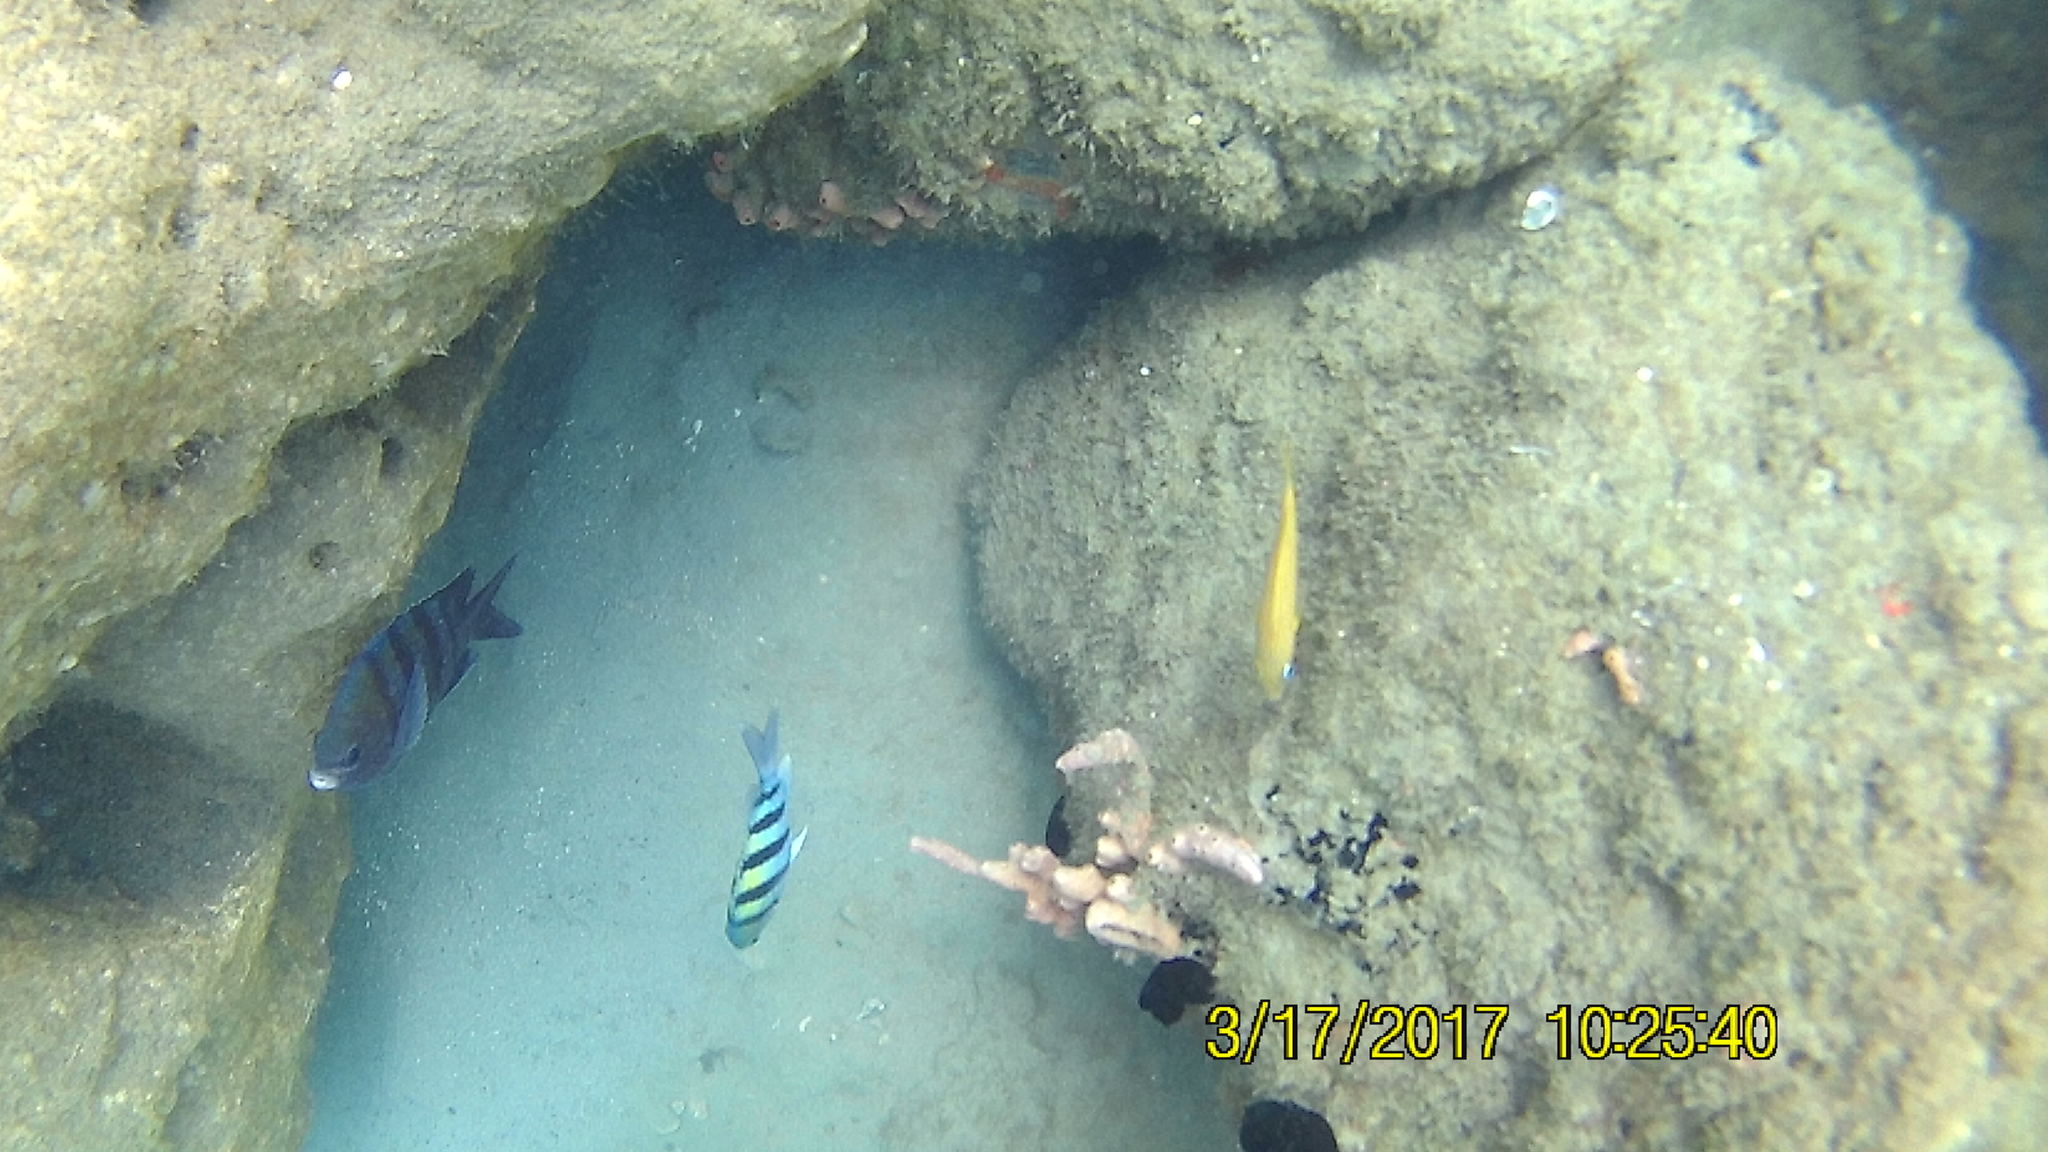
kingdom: Animalia
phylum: Chordata
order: Perciformes
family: Pomacentridae
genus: Abudefduf
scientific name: Abudefduf saxatilis
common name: Sergeant major
